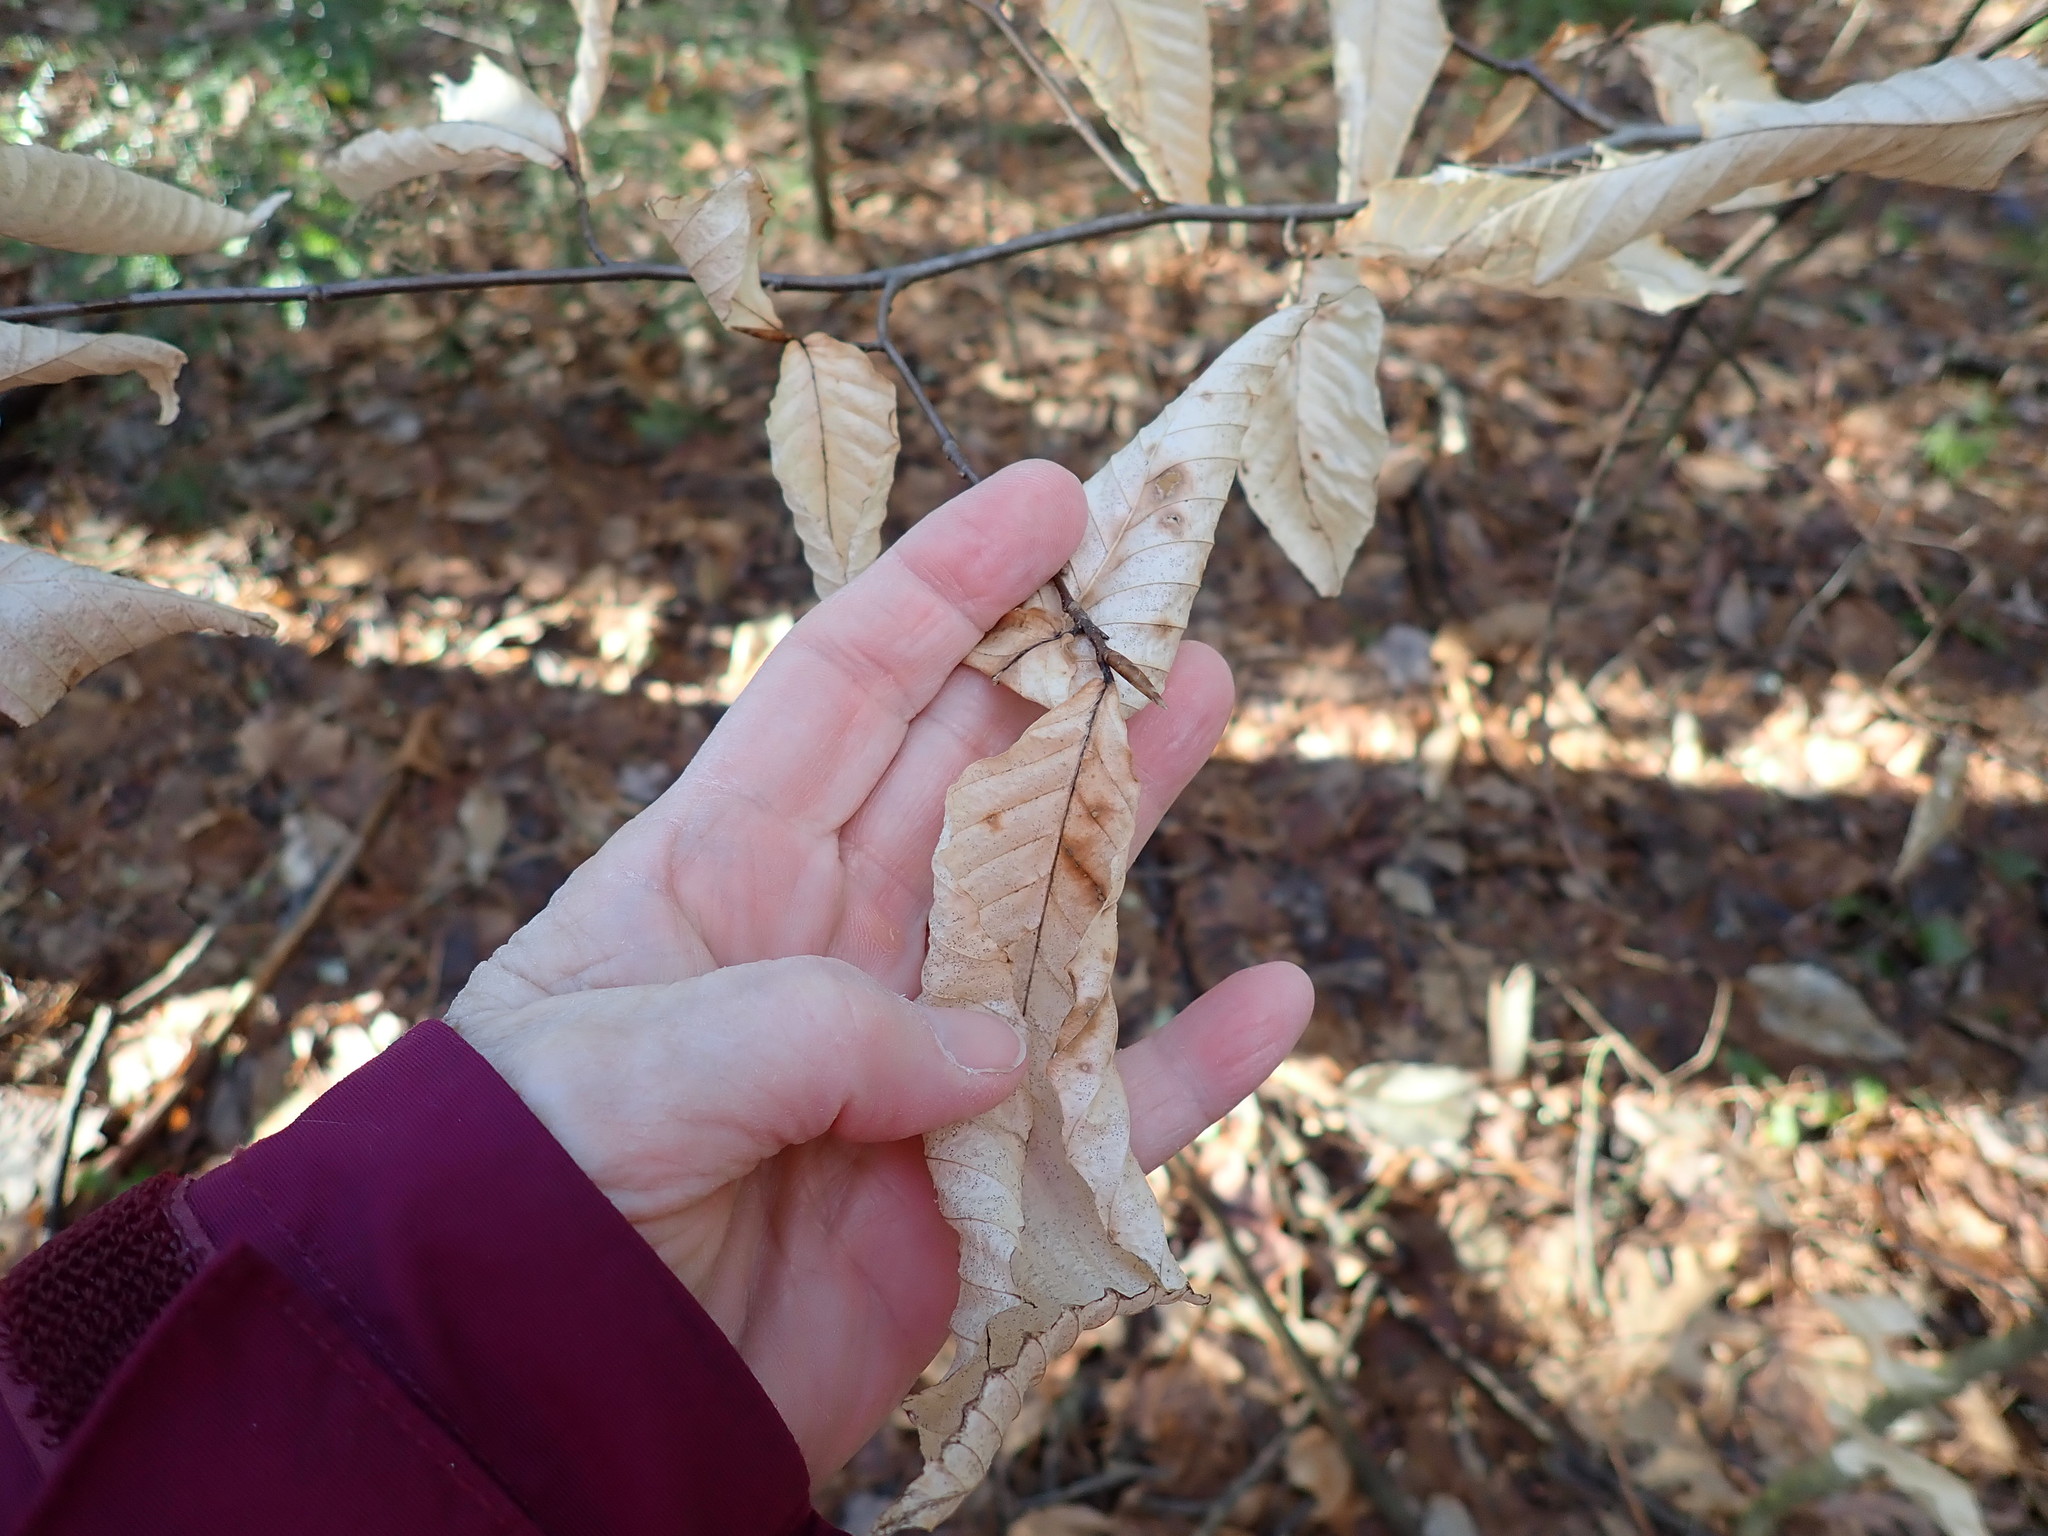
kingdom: Plantae
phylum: Tracheophyta
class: Magnoliopsida
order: Fagales
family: Fagaceae
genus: Fagus
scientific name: Fagus grandifolia
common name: American beech
